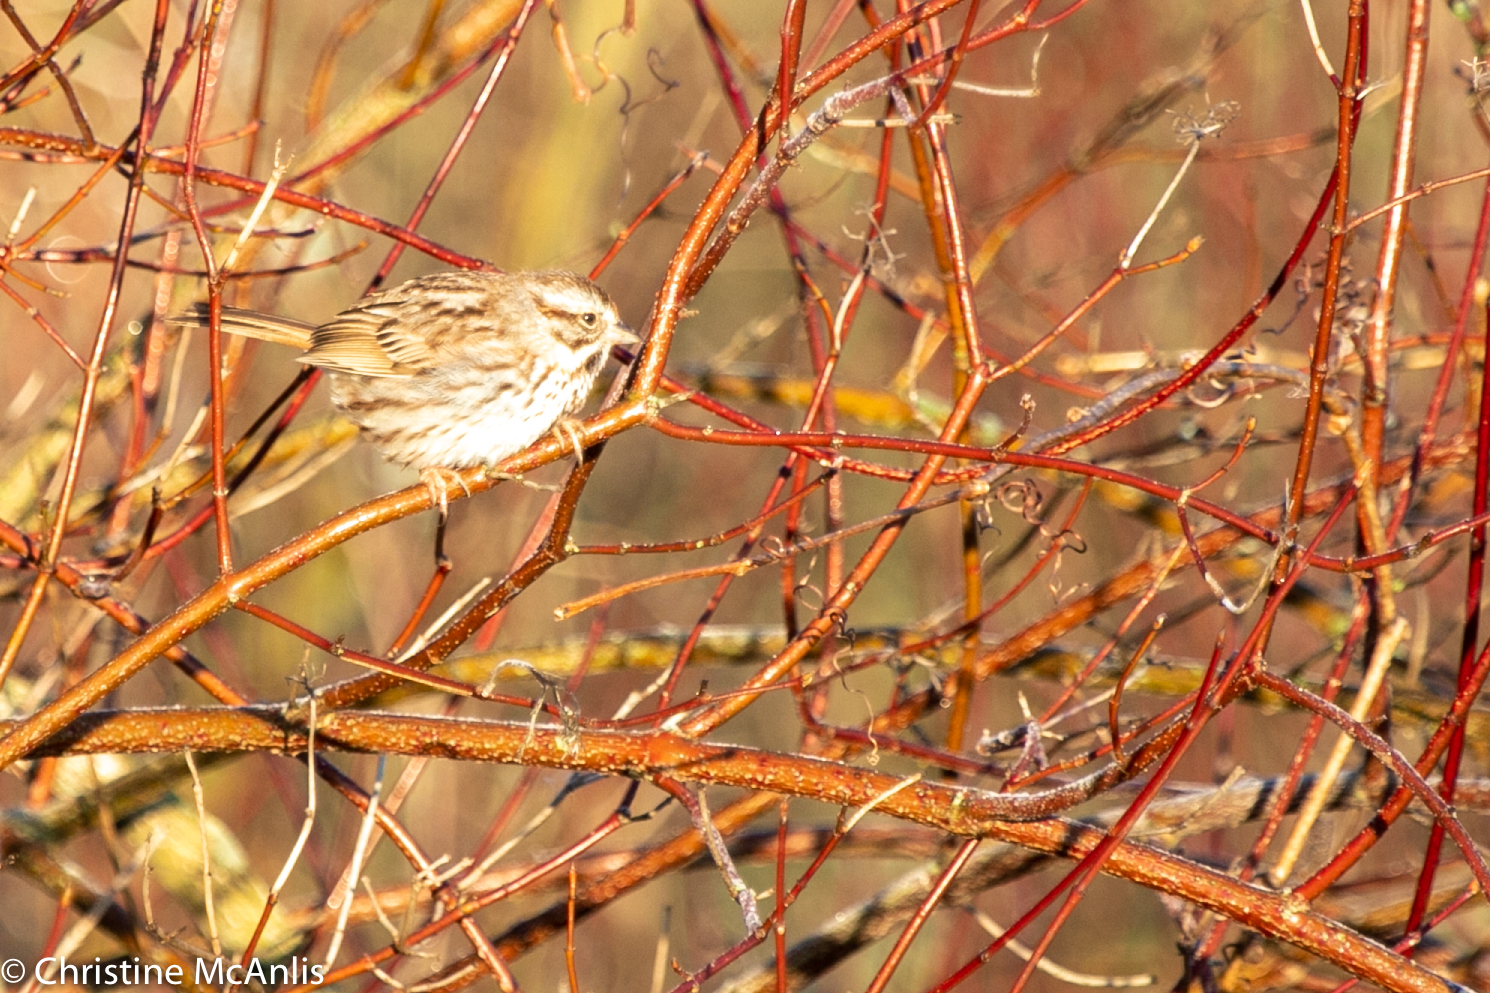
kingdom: Animalia
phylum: Chordata
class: Aves
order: Passeriformes
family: Passerellidae
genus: Melospiza
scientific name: Melospiza melodia
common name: Song sparrow
